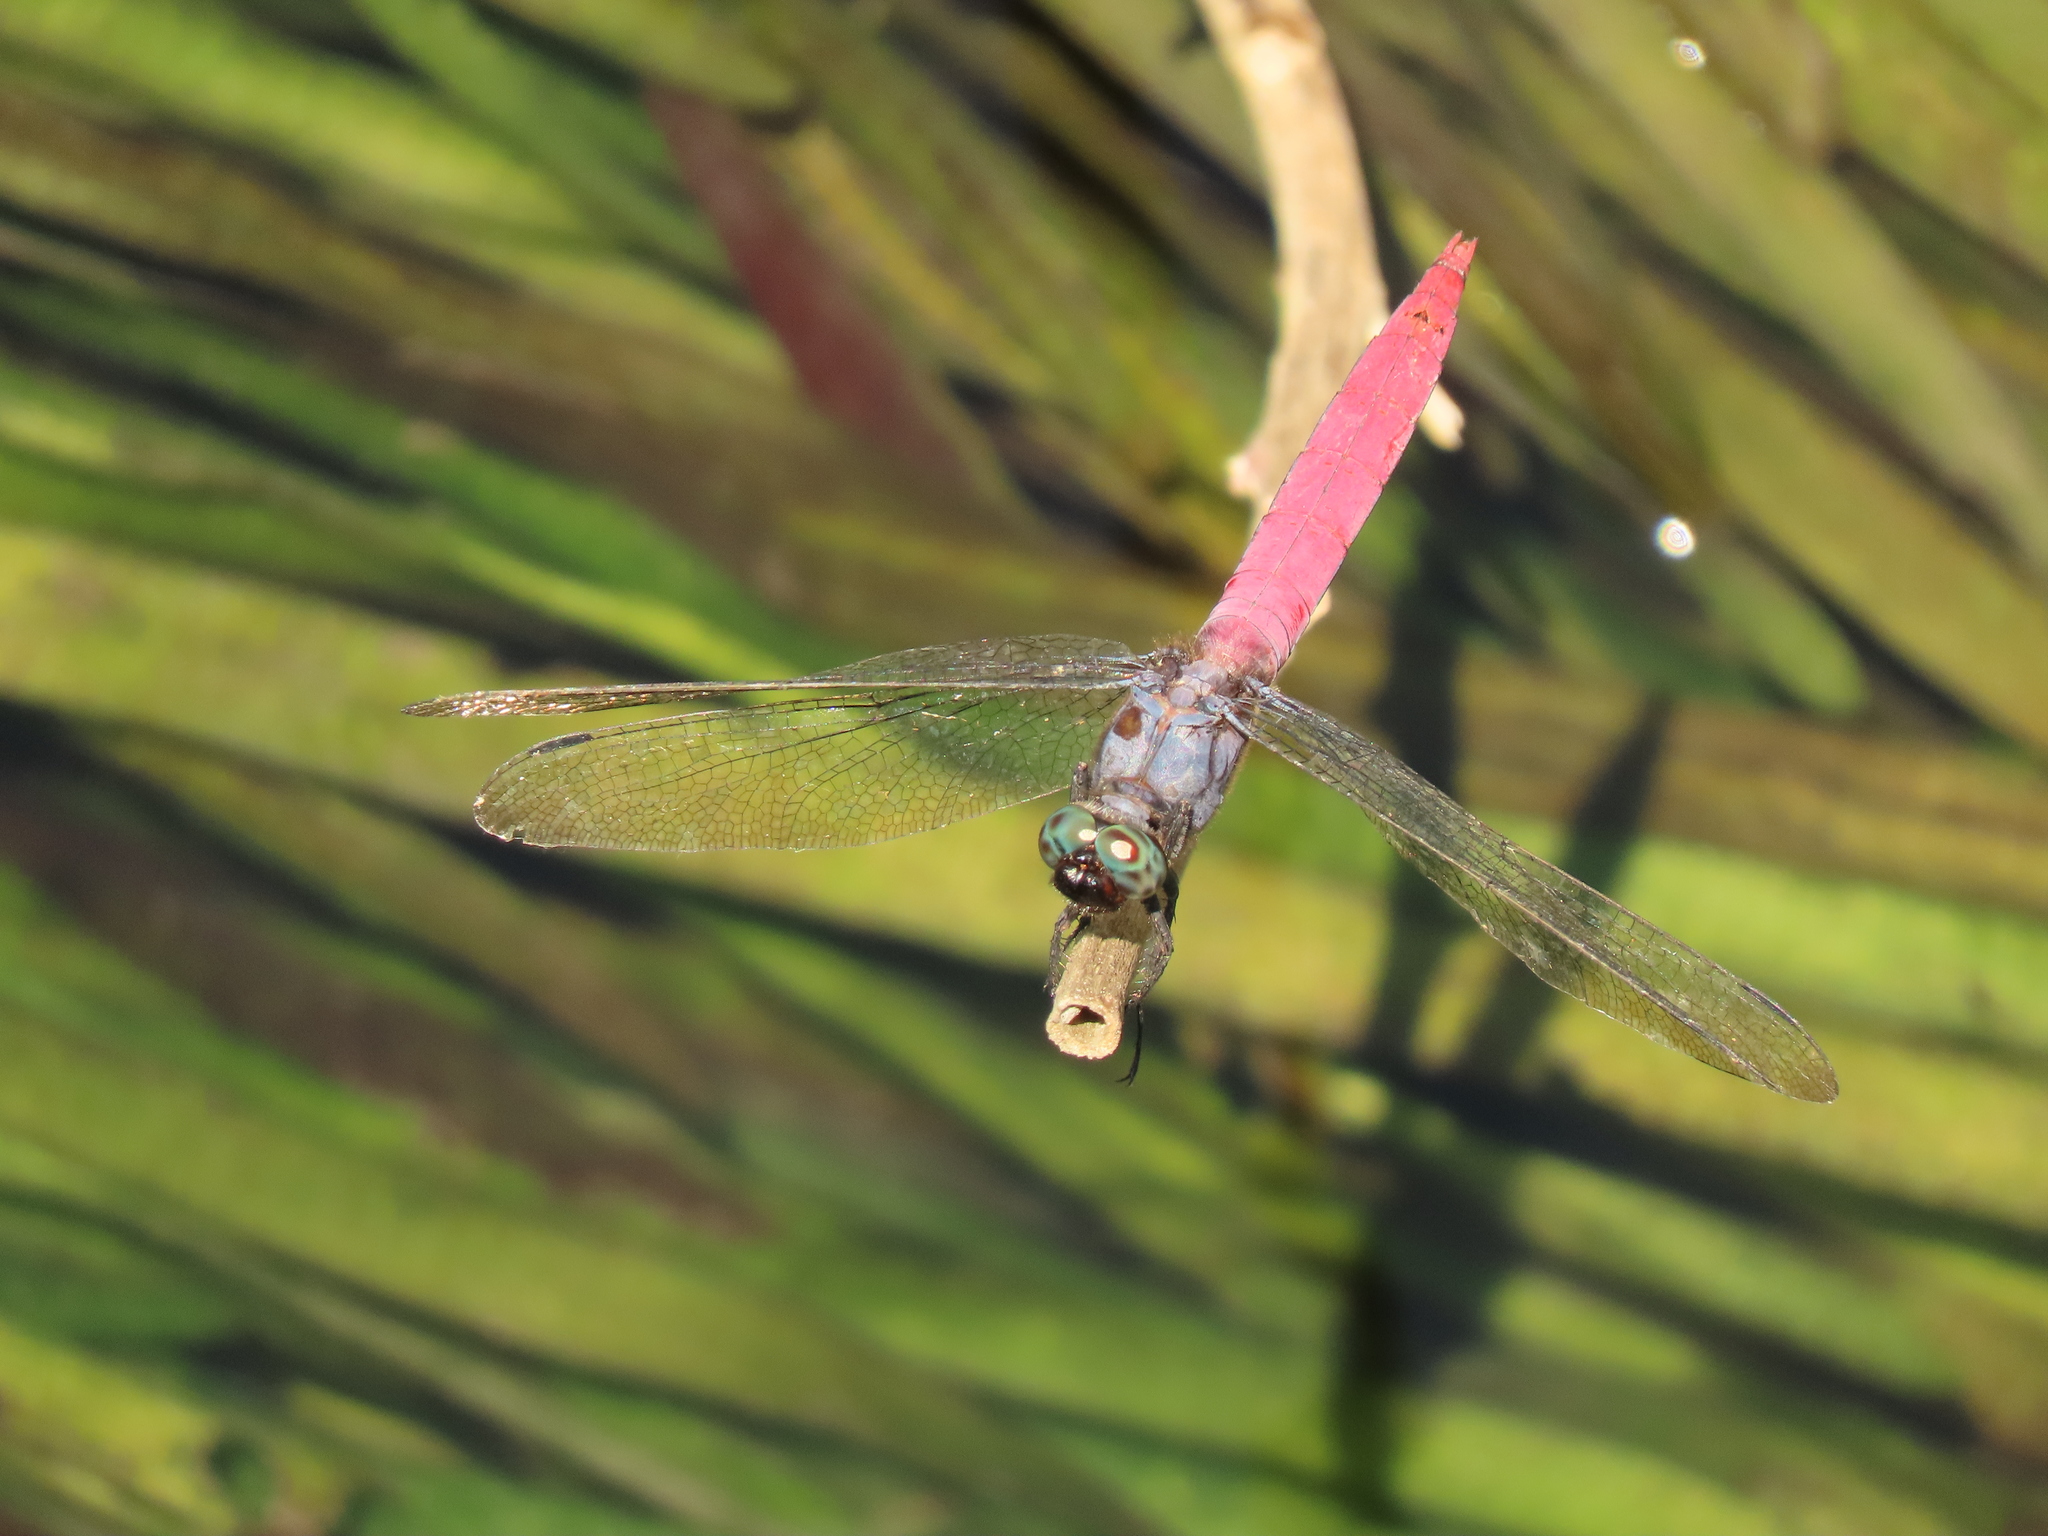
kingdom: Animalia
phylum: Arthropoda
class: Insecta
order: Odonata
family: Libellulidae
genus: Orthetrum
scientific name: Orthetrum pruinosum
